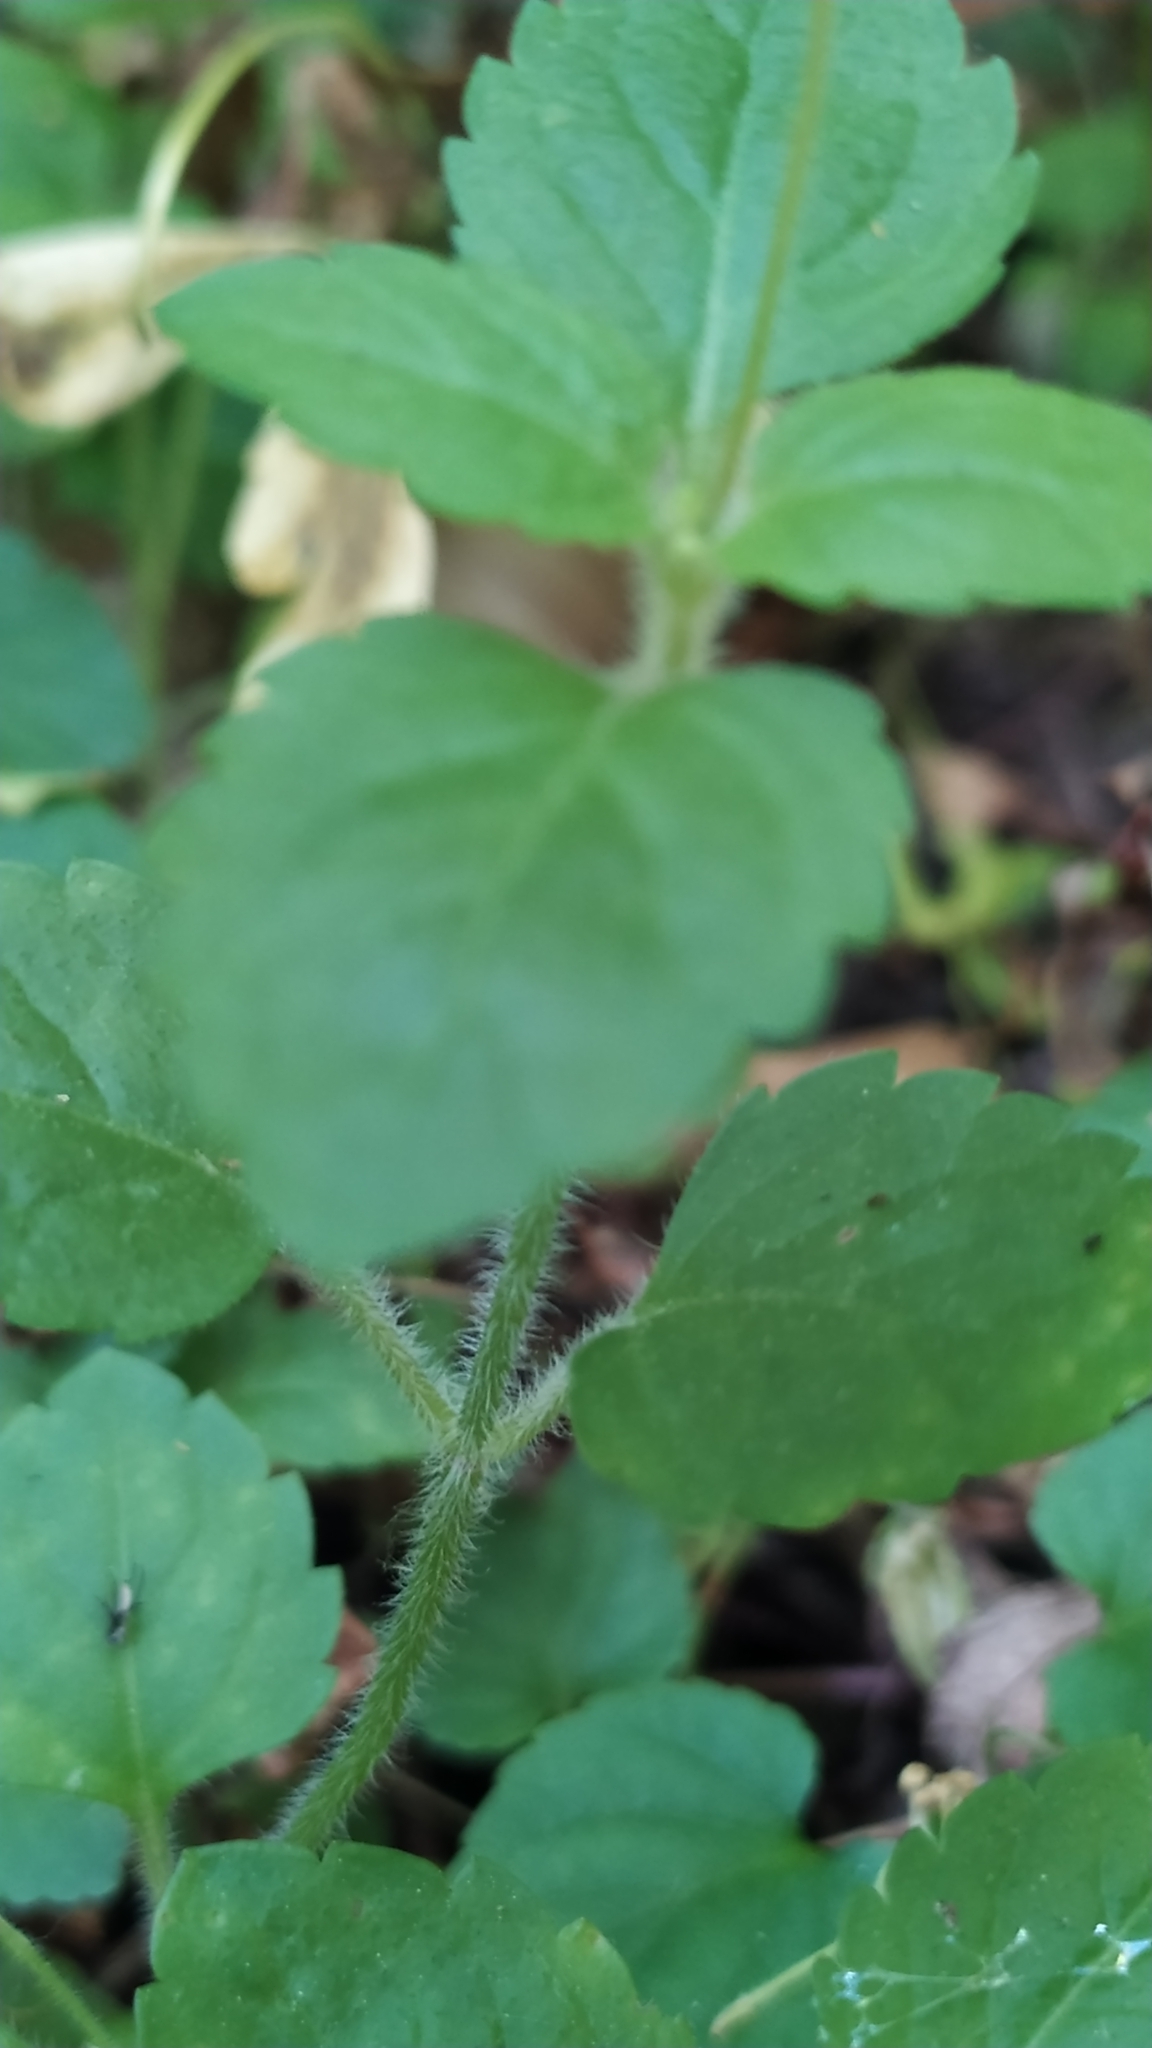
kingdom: Plantae
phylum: Tracheophyta
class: Magnoliopsida
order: Lamiales
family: Plantaginaceae
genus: Veronica
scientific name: Veronica montana
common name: Wood speedwell
